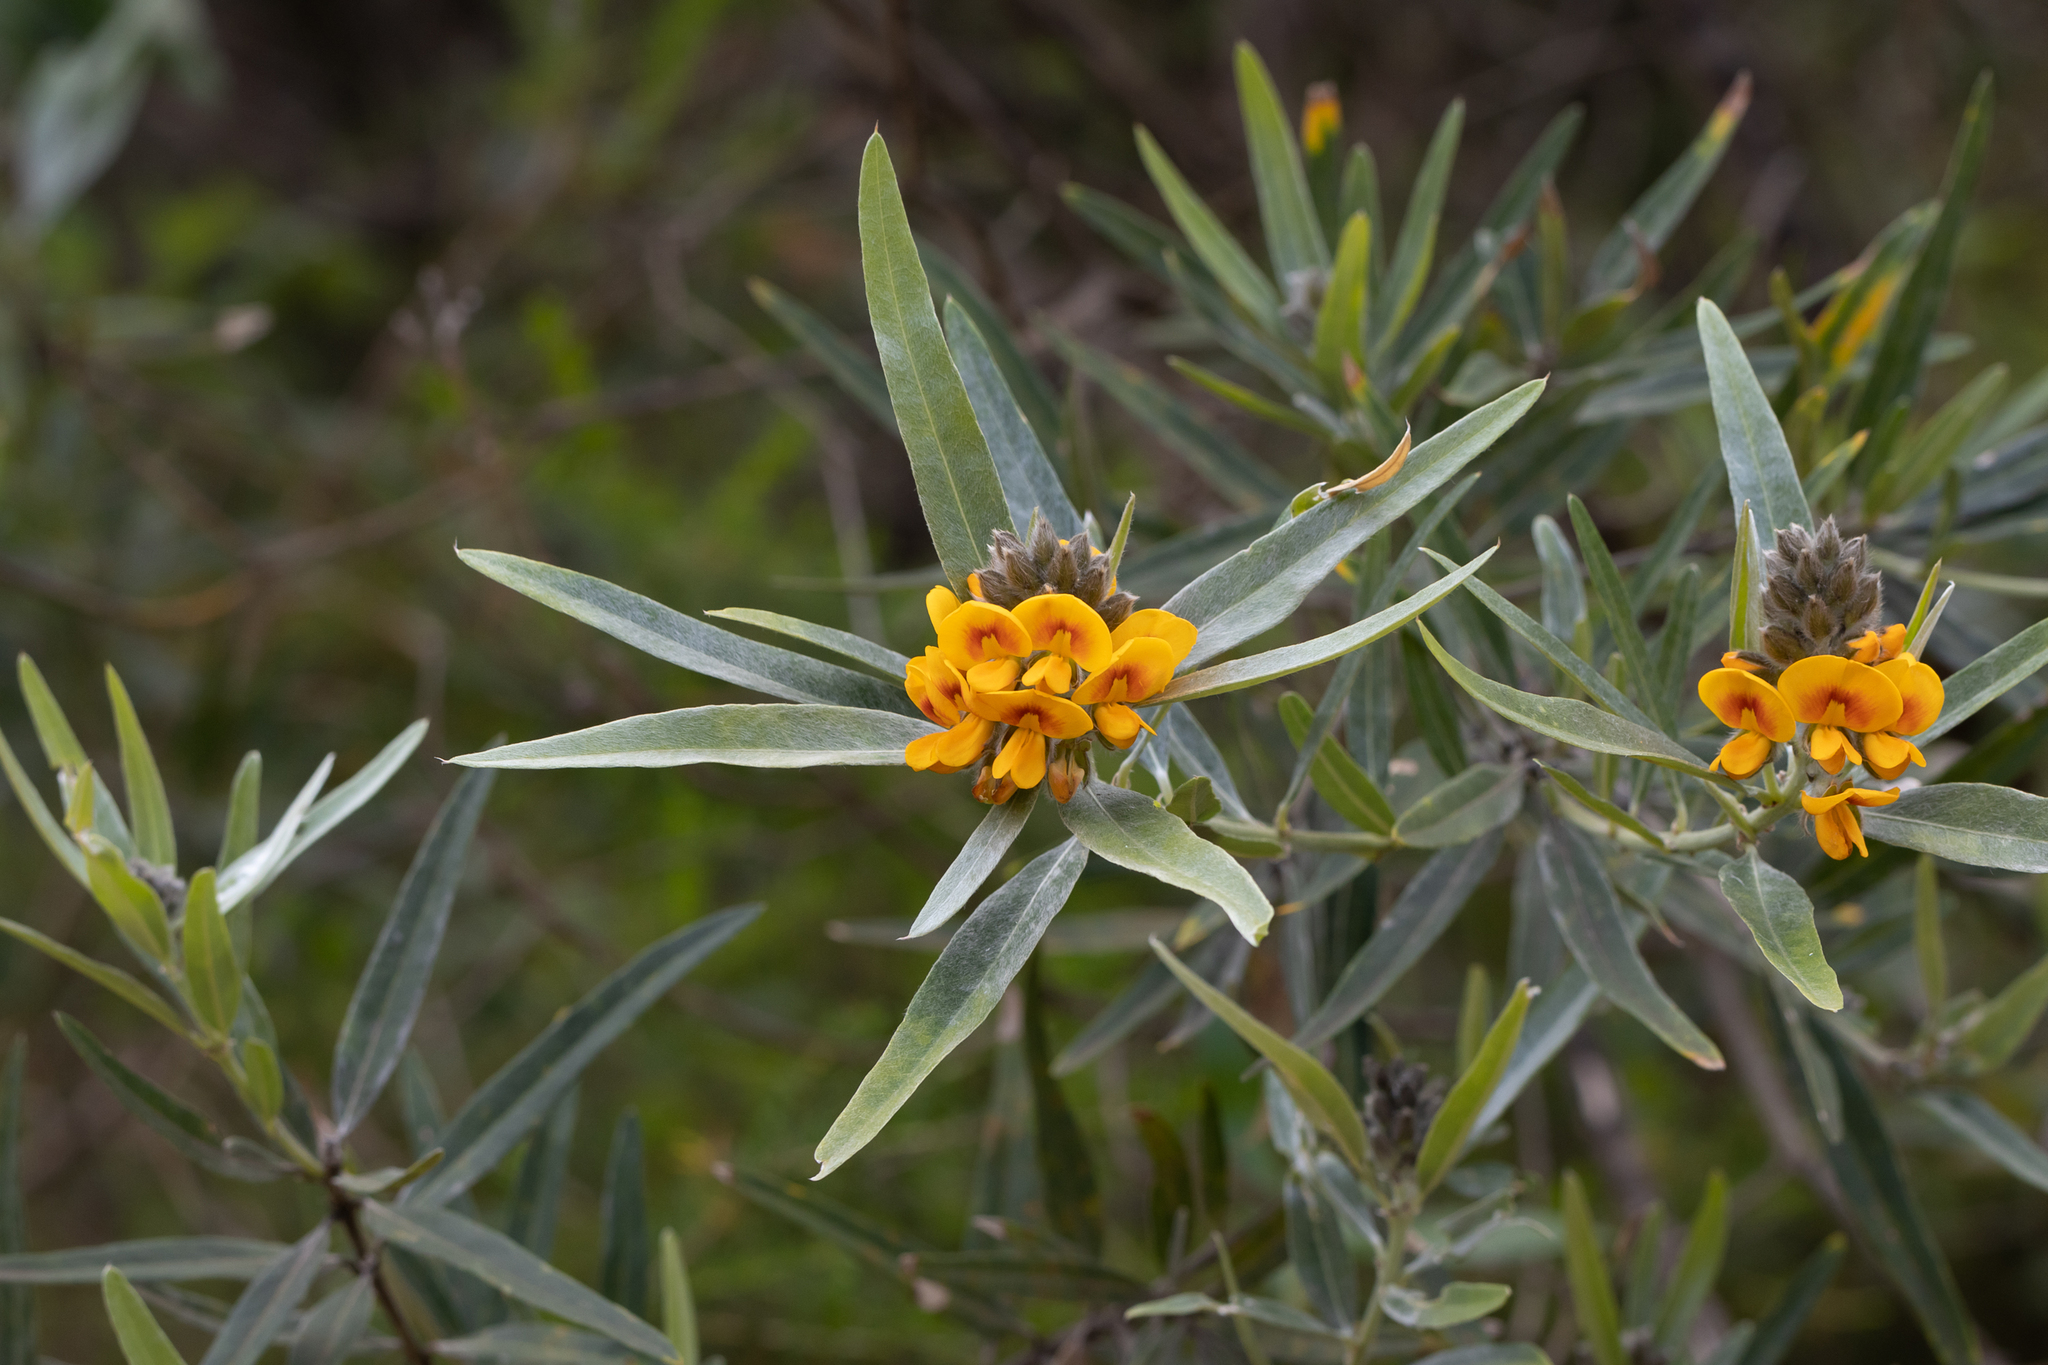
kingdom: Plantae
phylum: Tracheophyta
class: Magnoliopsida
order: Fabales
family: Fabaceae
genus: Callistachys
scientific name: Callistachys lanceolata
